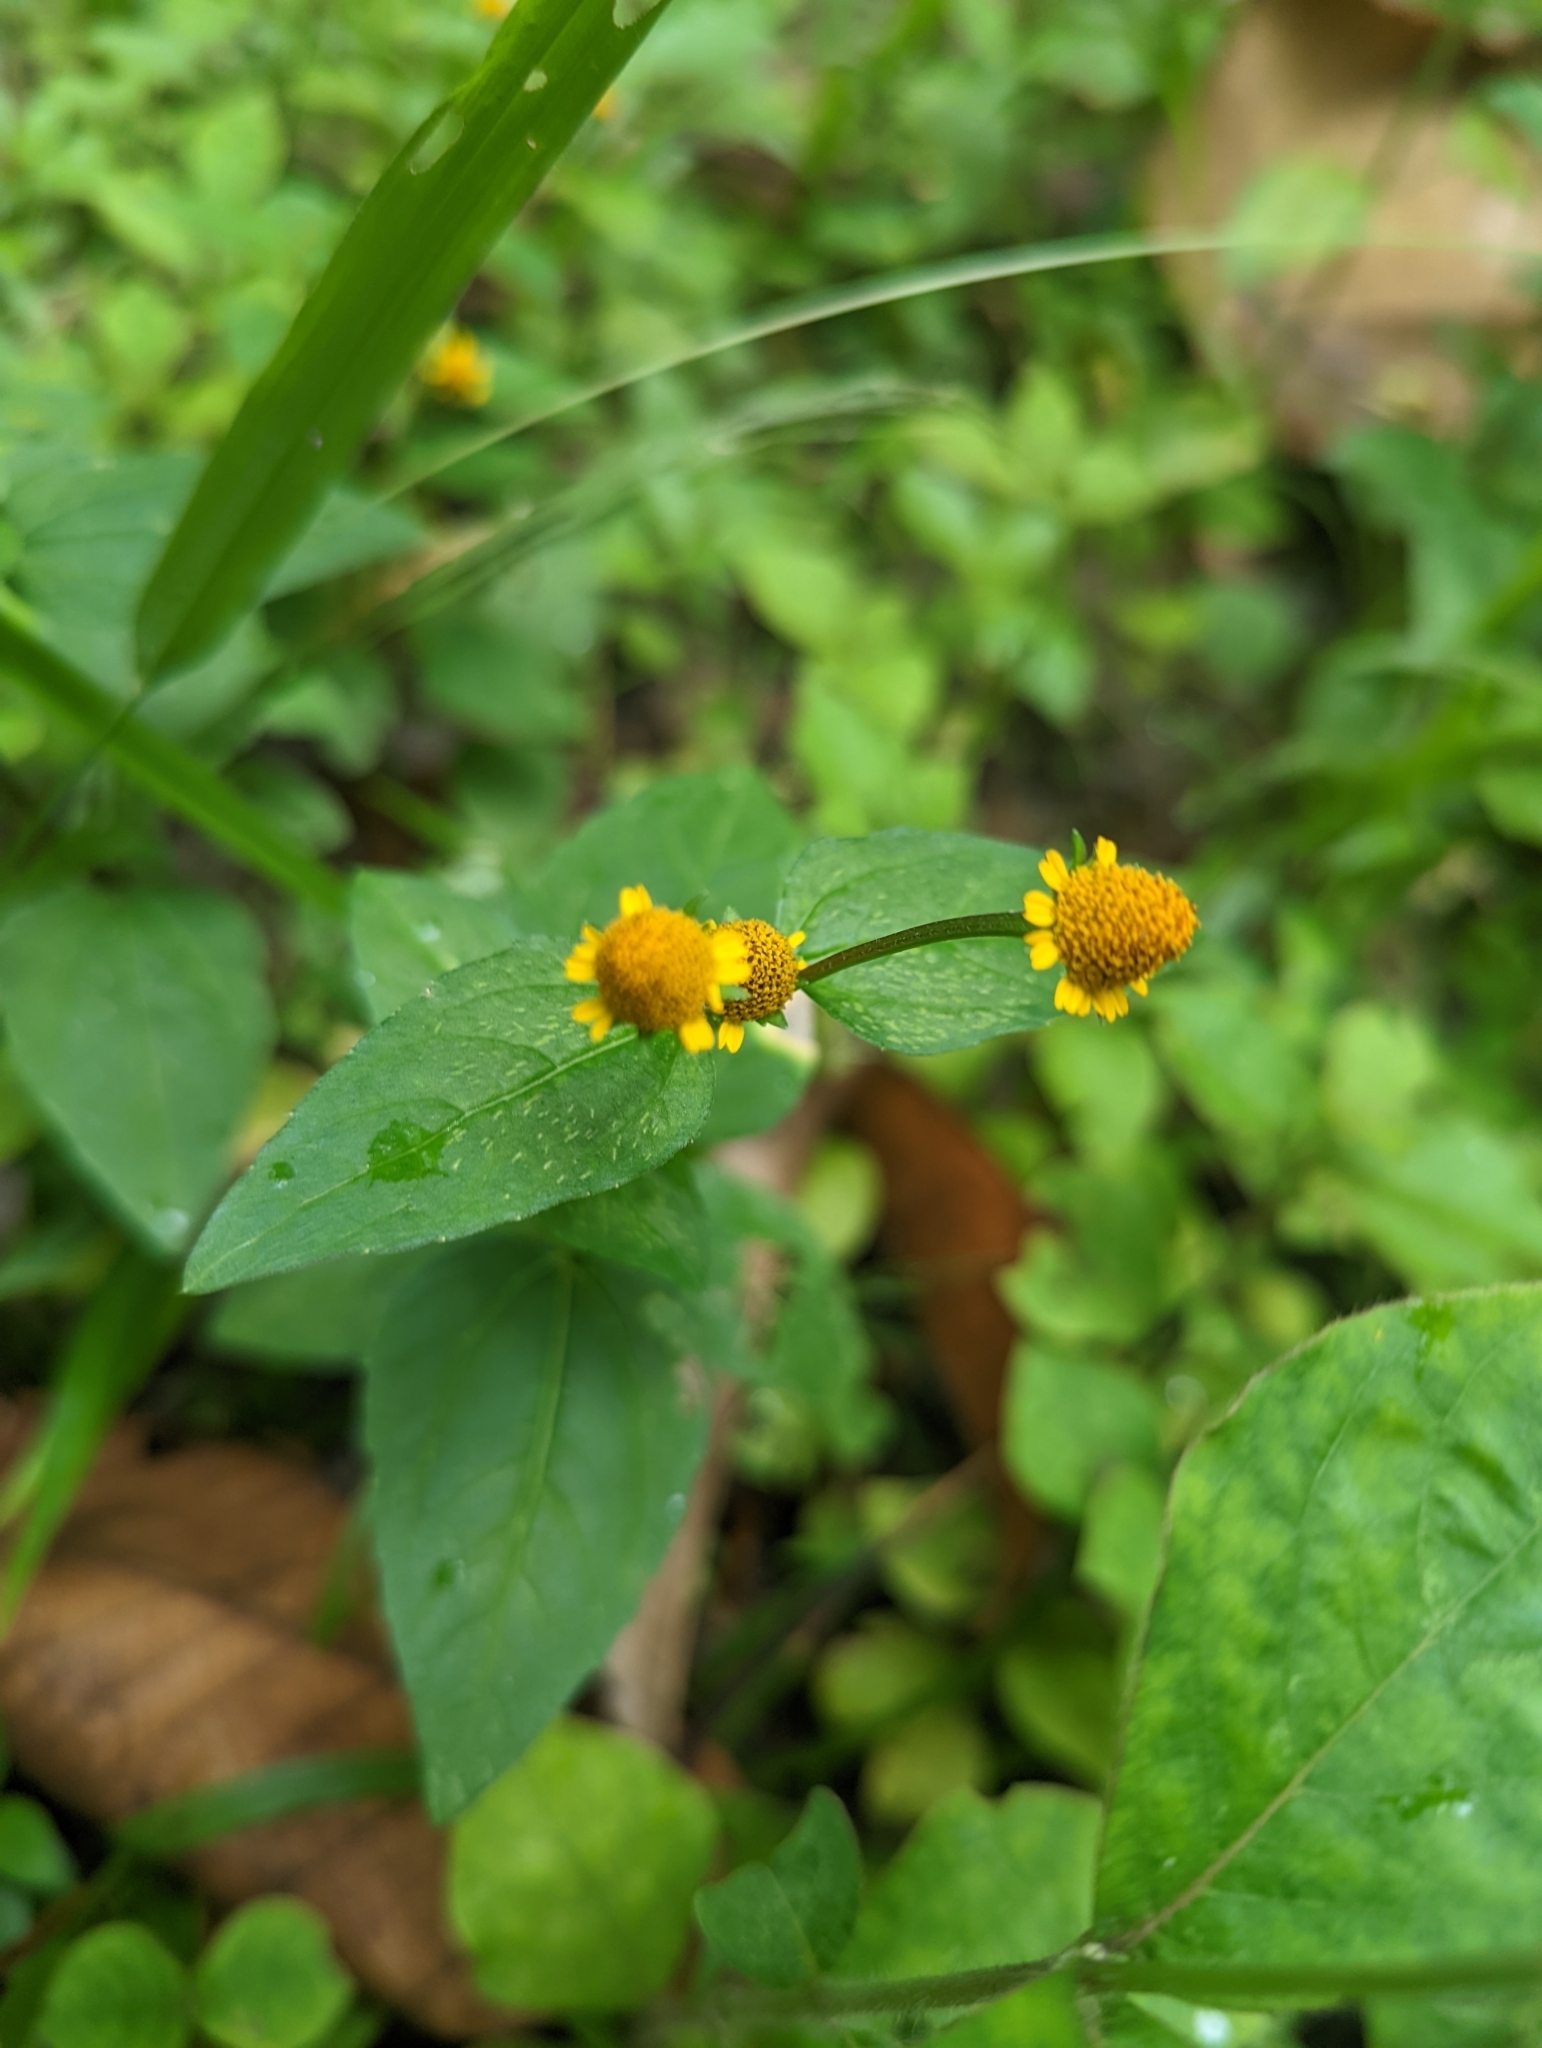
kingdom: Plantae
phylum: Tracheophyta
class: Magnoliopsida
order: Asterales
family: Asteraceae
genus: Acmella
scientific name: Acmella repens
